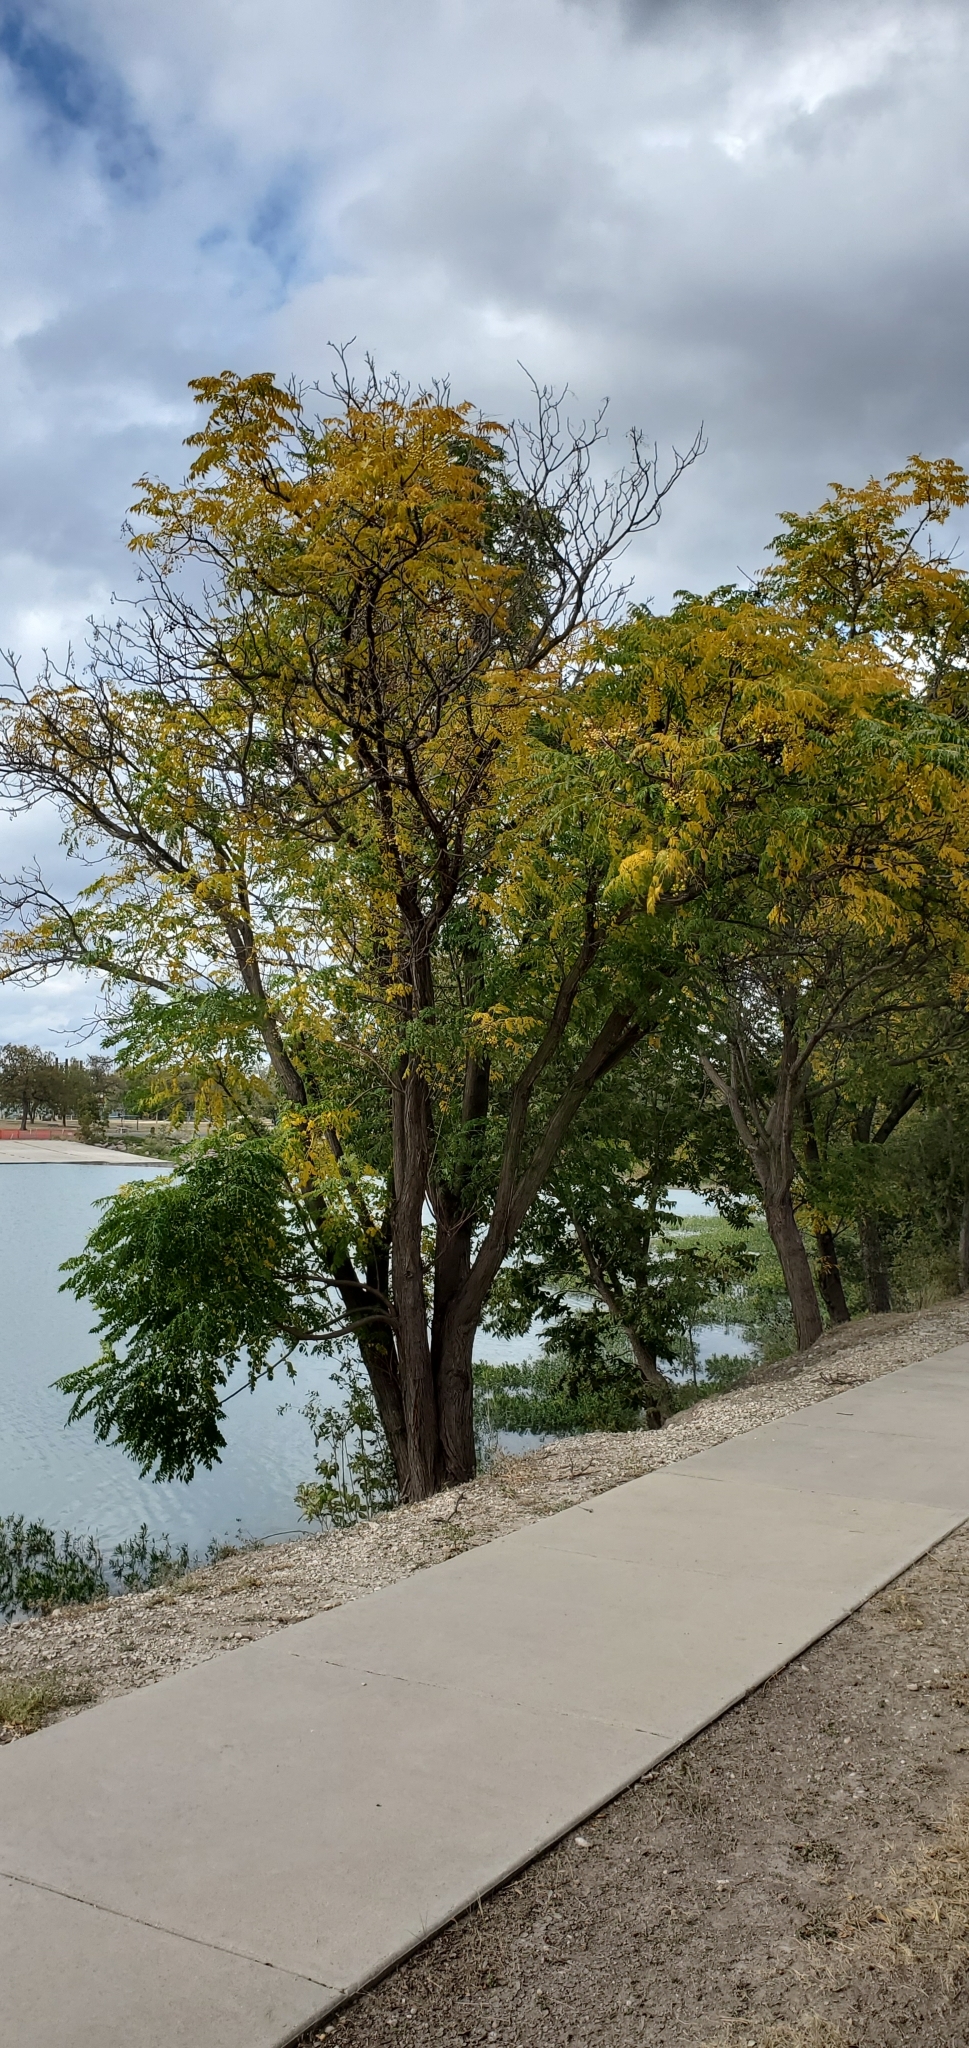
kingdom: Plantae
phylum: Tracheophyta
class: Magnoliopsida
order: Sapindales
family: Meliaceae
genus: Melia
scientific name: Melia azedarach
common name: Chinaberrytree
